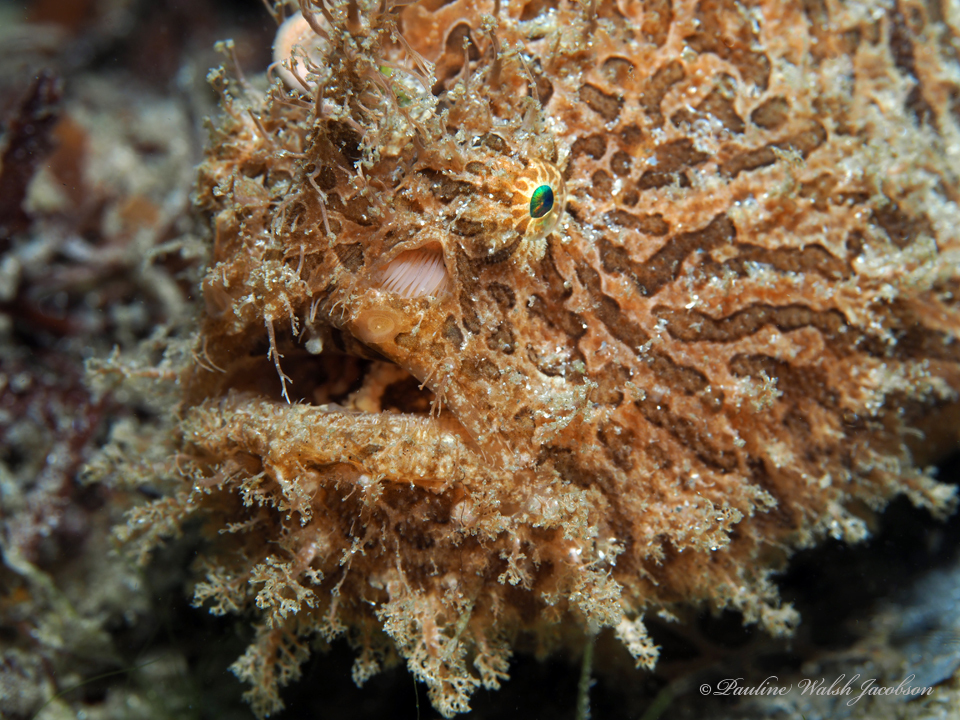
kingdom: Animalia
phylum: Chordata
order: Lophiiformes
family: Antennariidae
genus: Antennarius
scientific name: Antennarius striatus
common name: Striated frogfish
